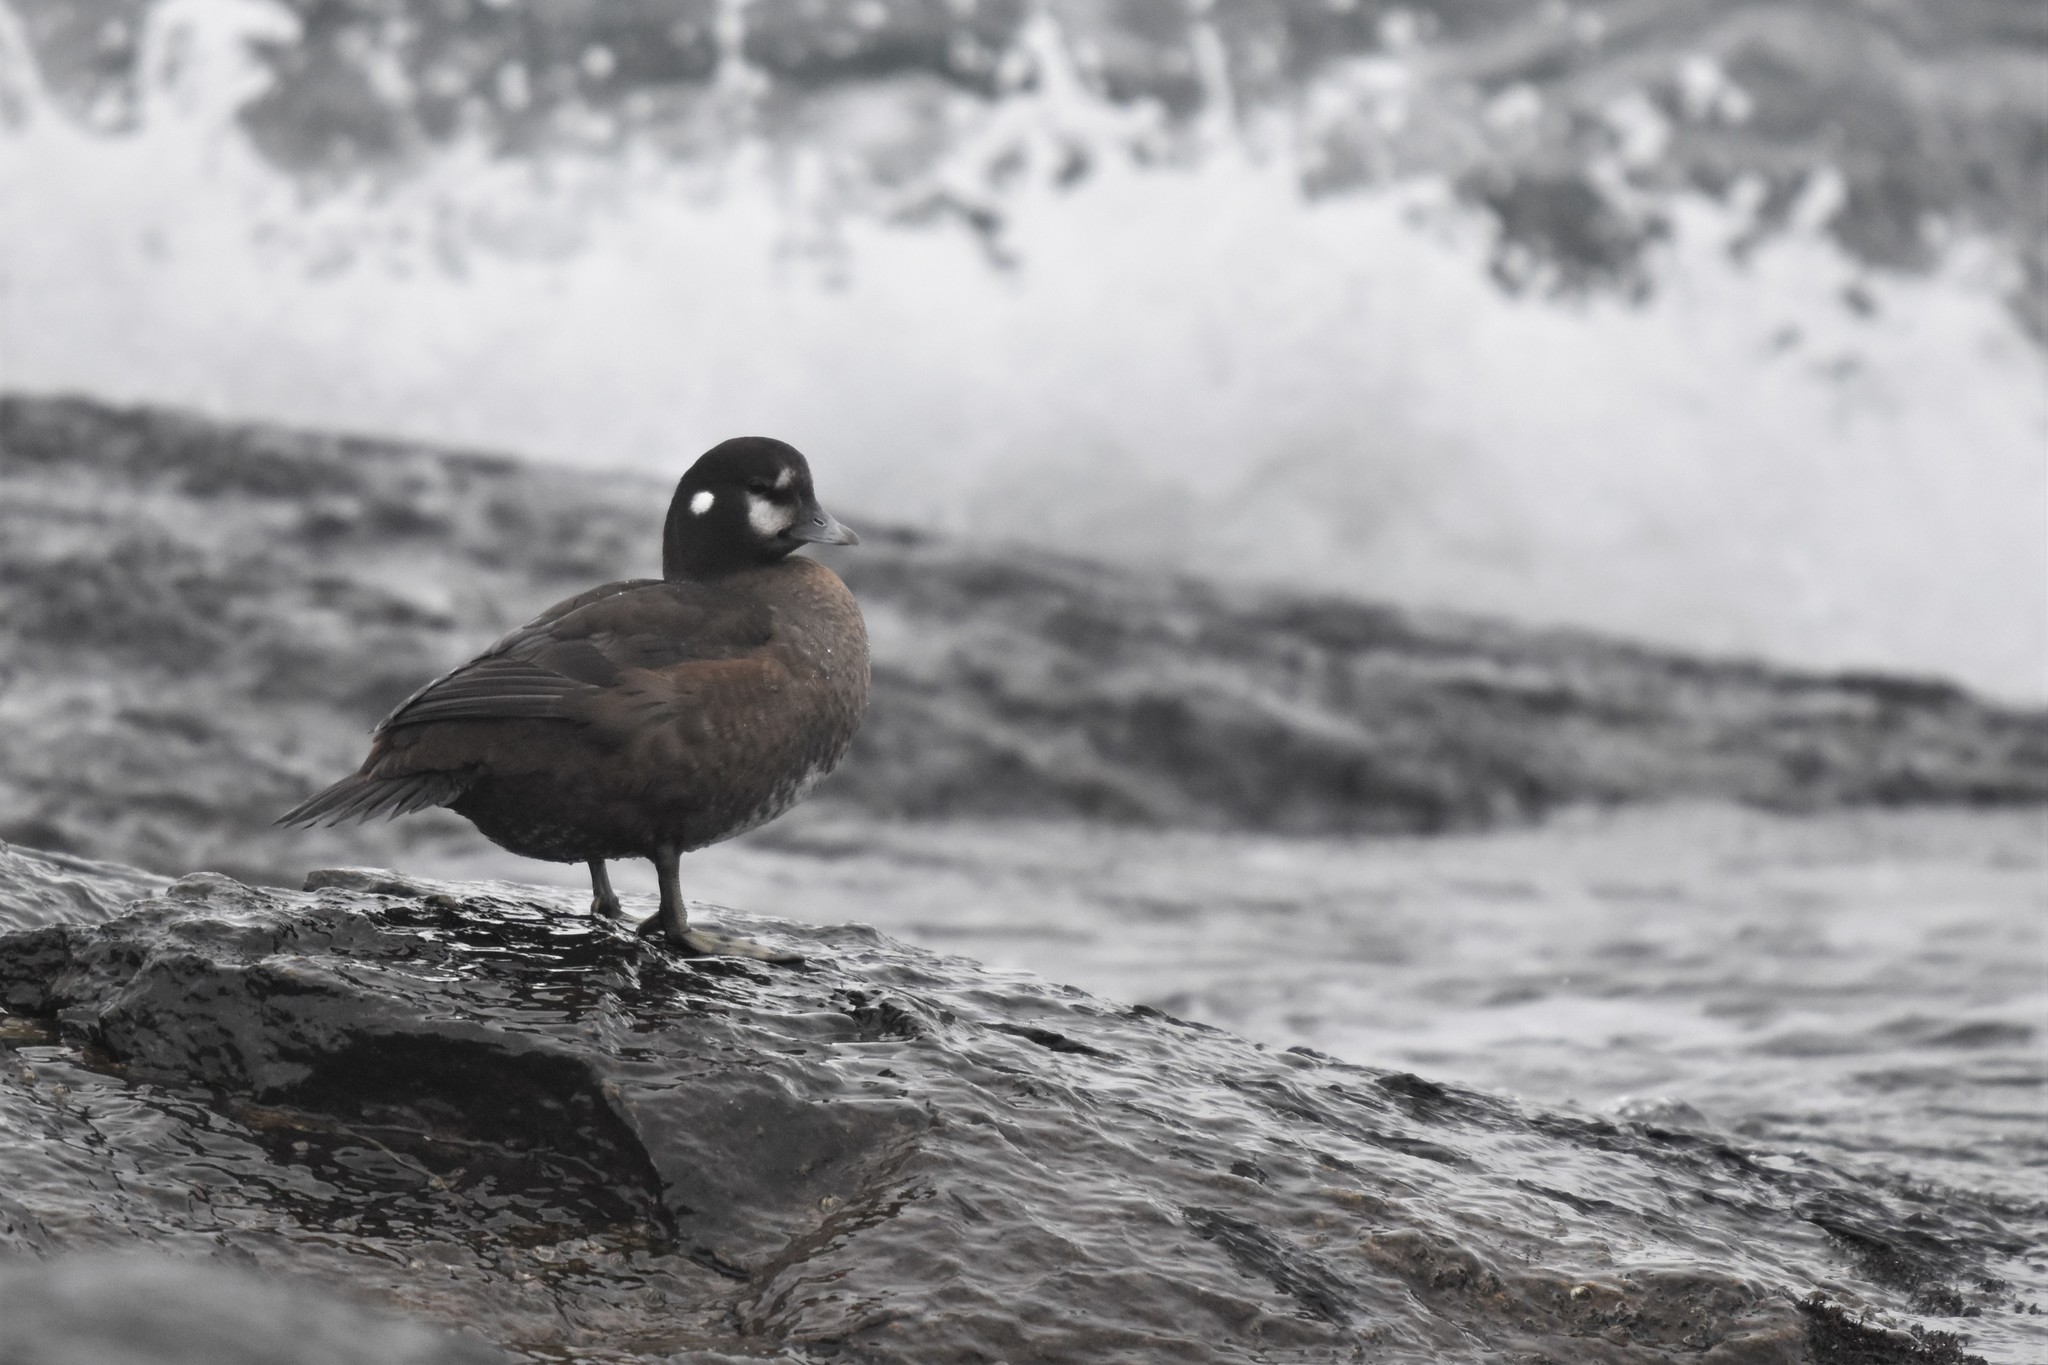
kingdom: Animalia
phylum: Chordata
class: Aves
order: Anseriformes
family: Anatidae
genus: Histrionicus
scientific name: Histrionicus histrionicus
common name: Harlequin duck
